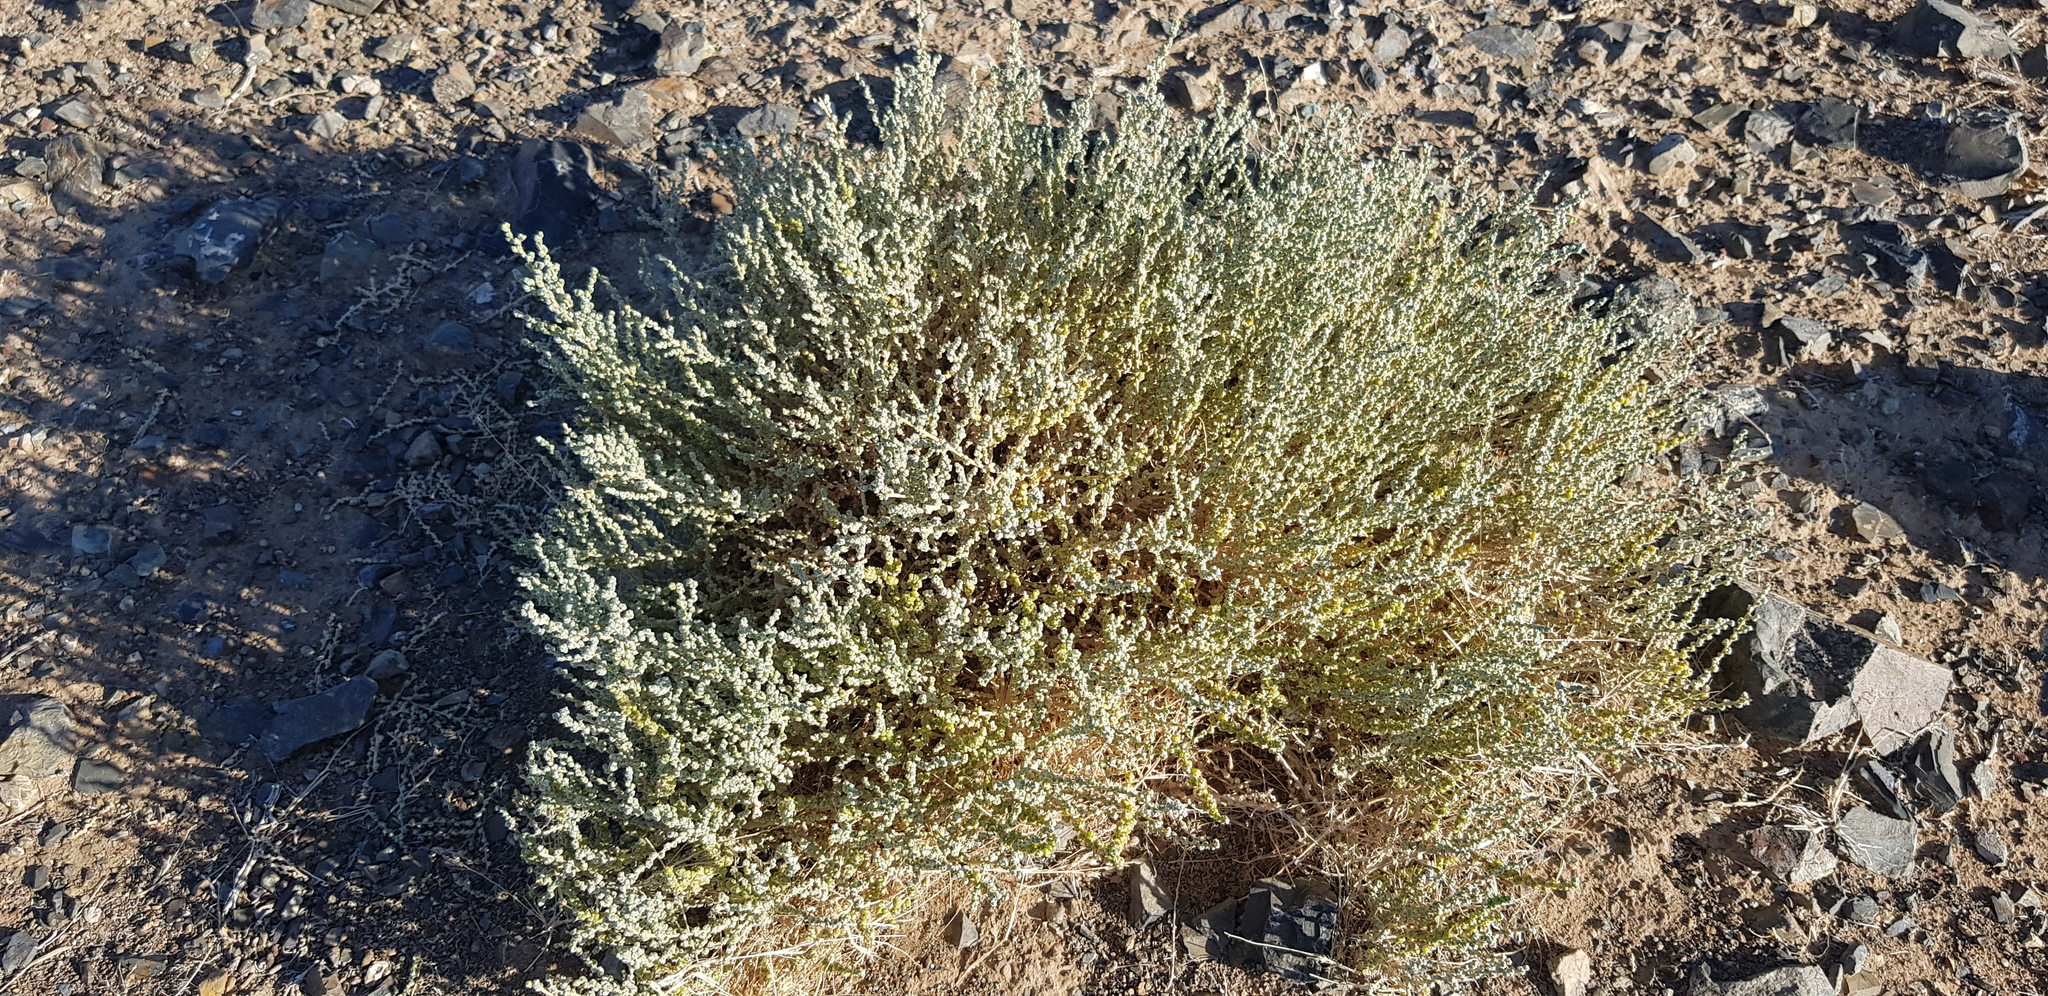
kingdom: Plantae
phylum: Tracheophyta
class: Magnoliopsida
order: Caryophyllales
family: Amaranthaceae
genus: Caroxylon
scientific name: Caroxylon passerinum
